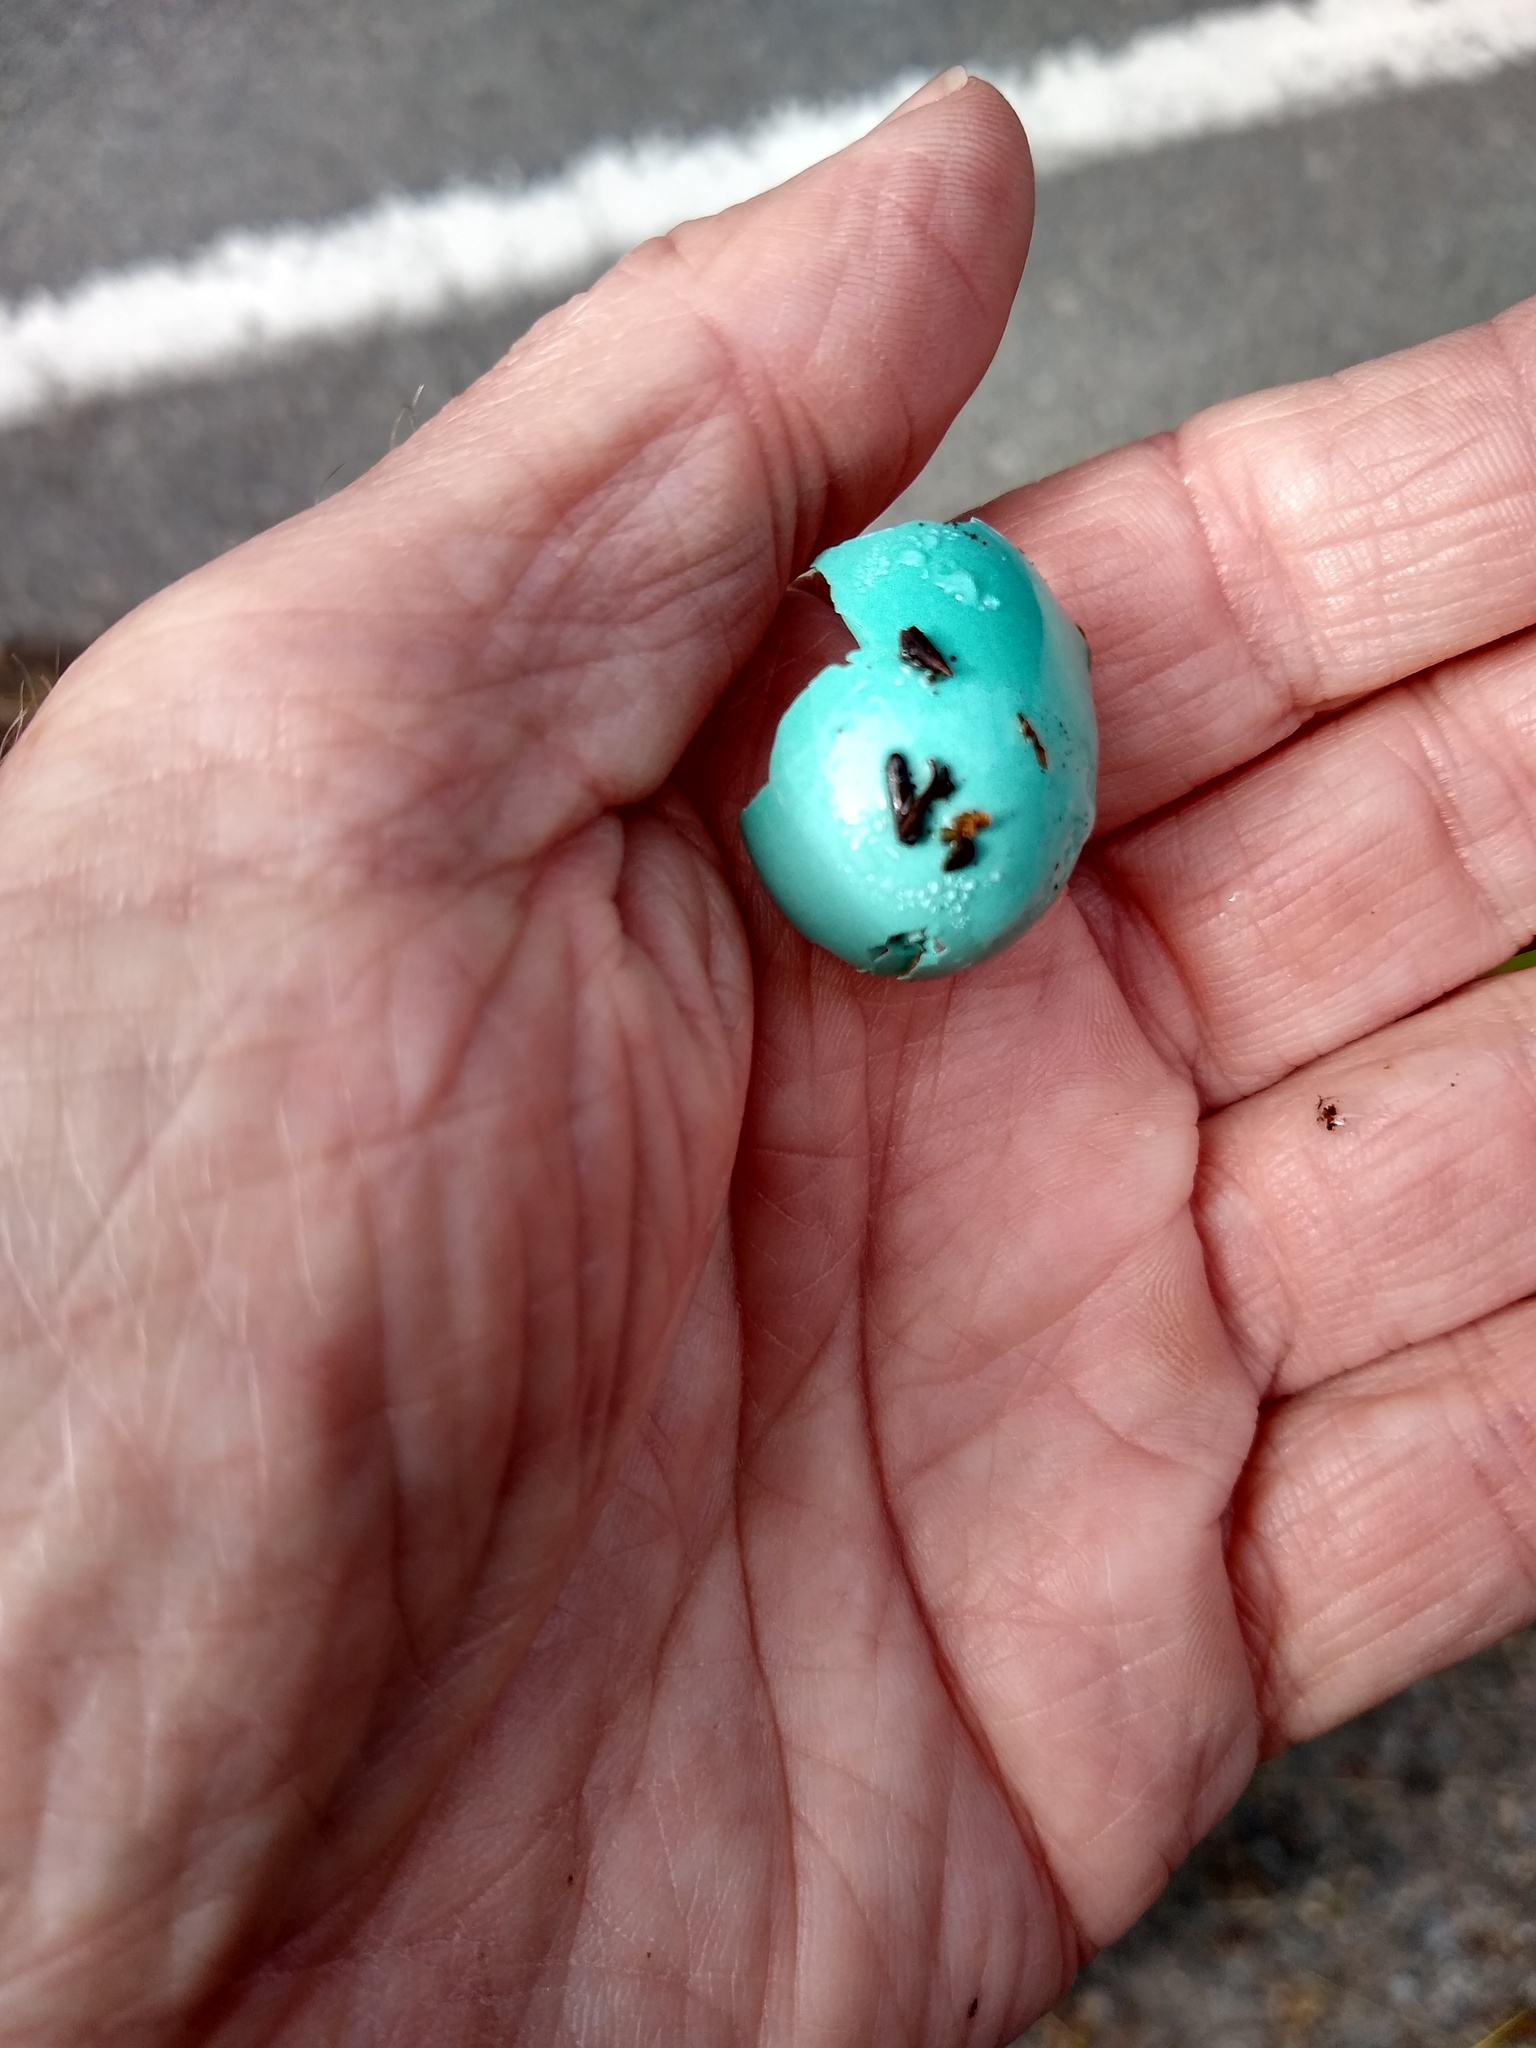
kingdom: Animalia
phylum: Chordata
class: Aves
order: Passeriformes
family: Turdidae
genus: Turdus
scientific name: Turdus migratorius
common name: American robin
